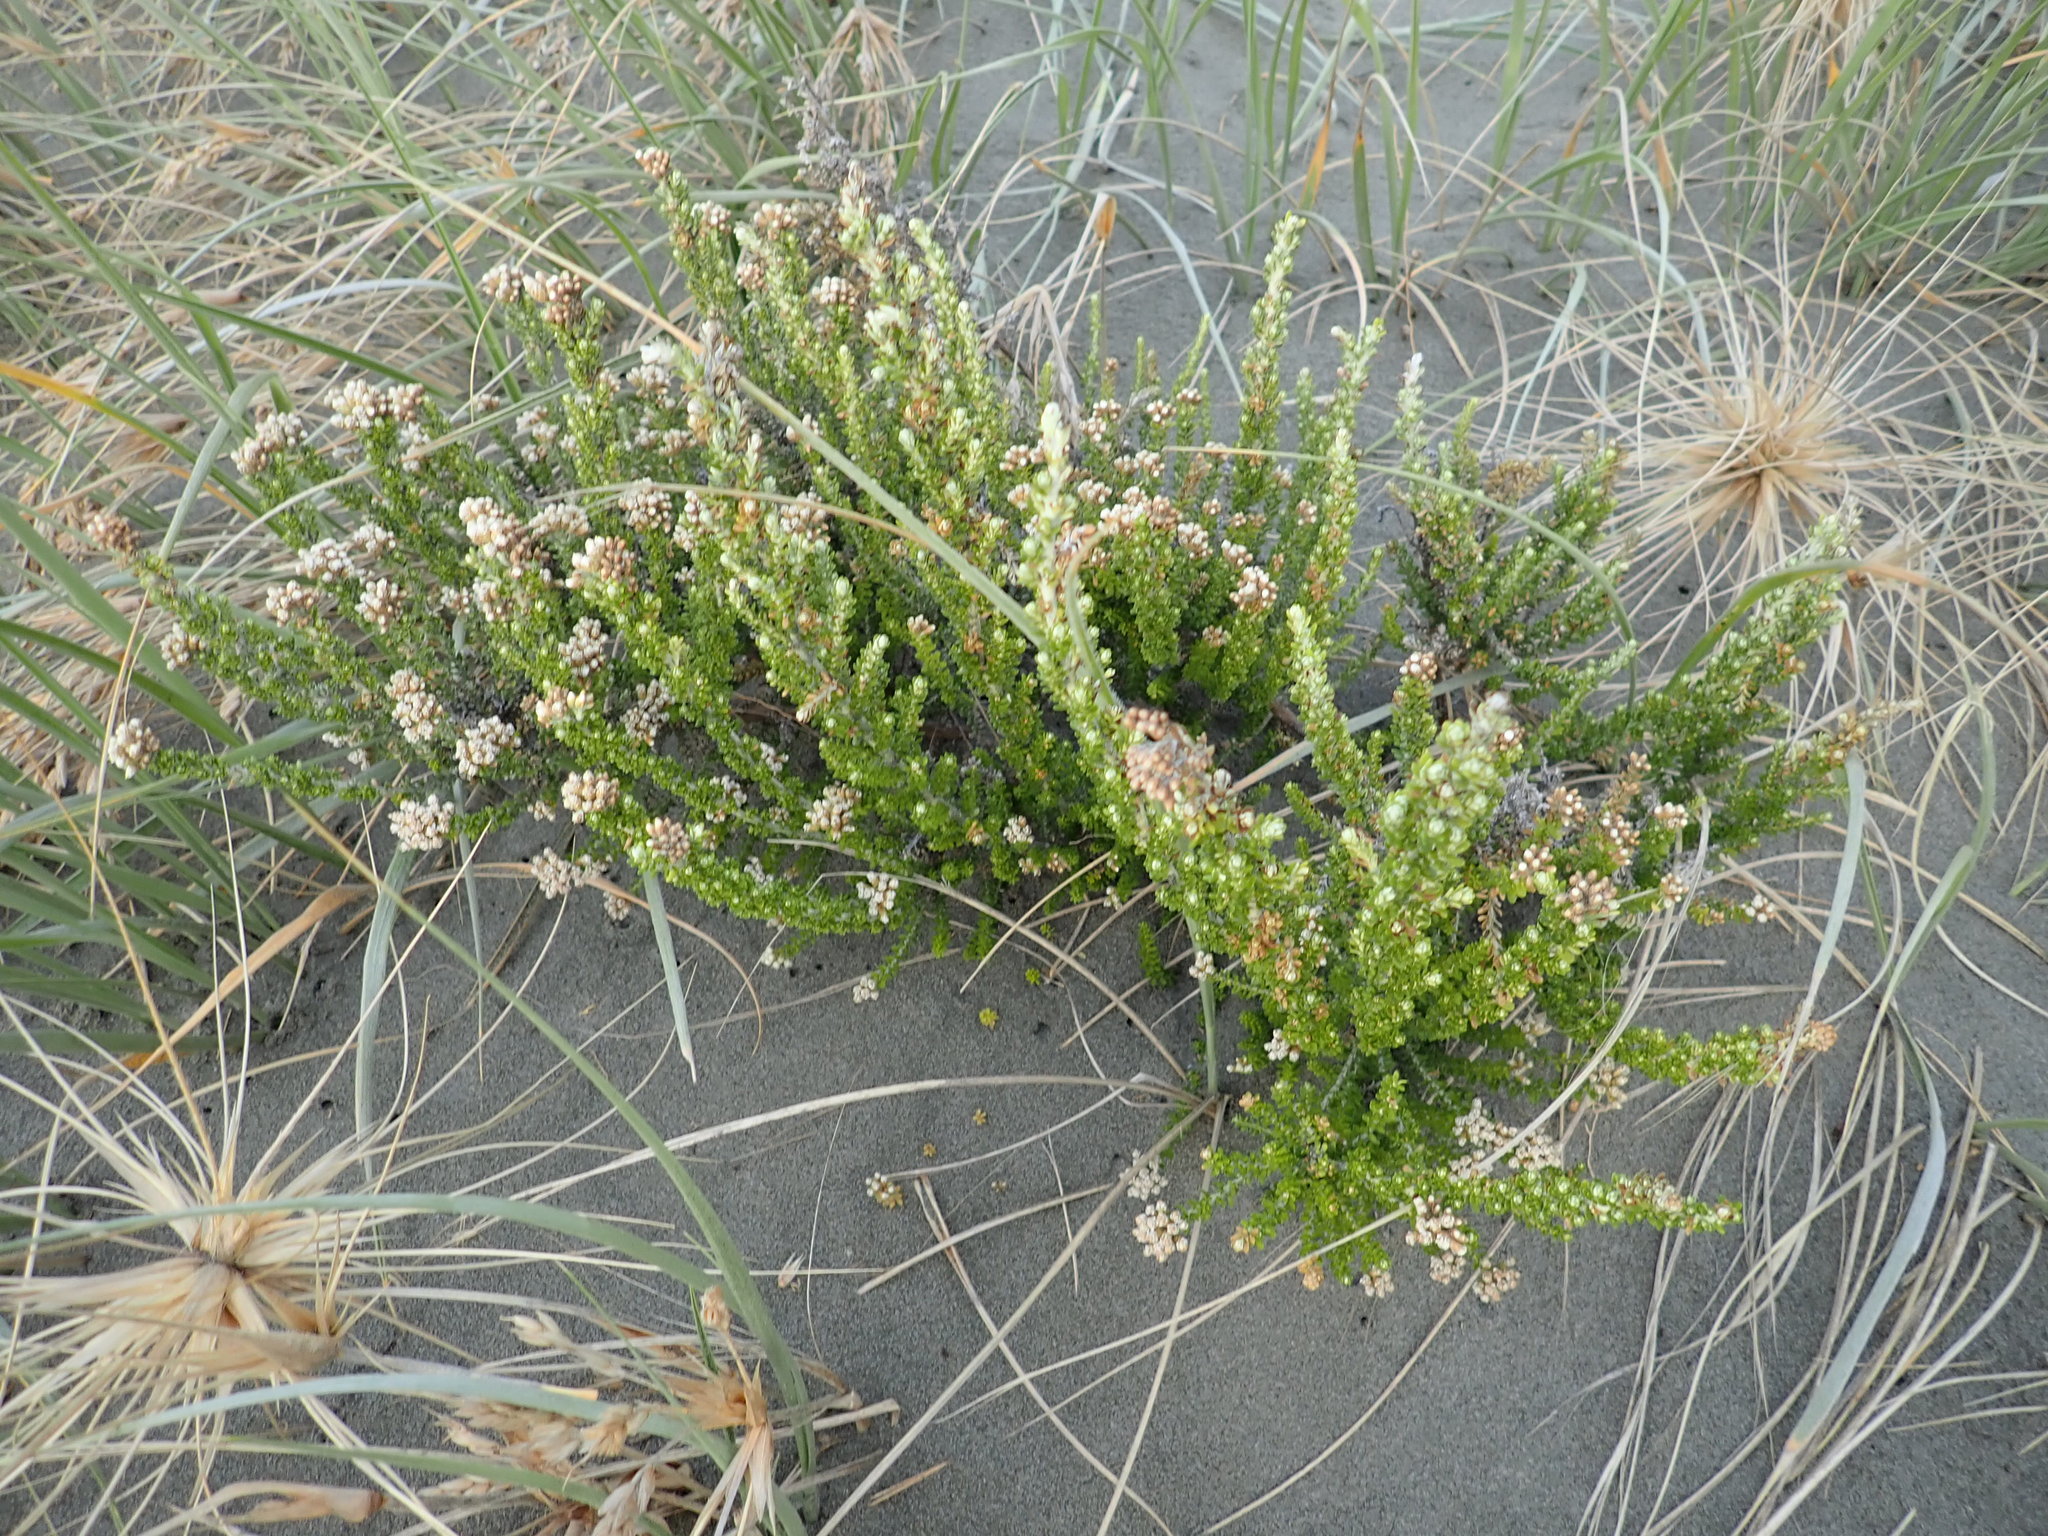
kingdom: Plantae
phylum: Tracheophyta
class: Magnoliopsida
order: Asterales
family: Asteraceae
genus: Ozothamnus
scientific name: Ozothamnus leptophyllus
